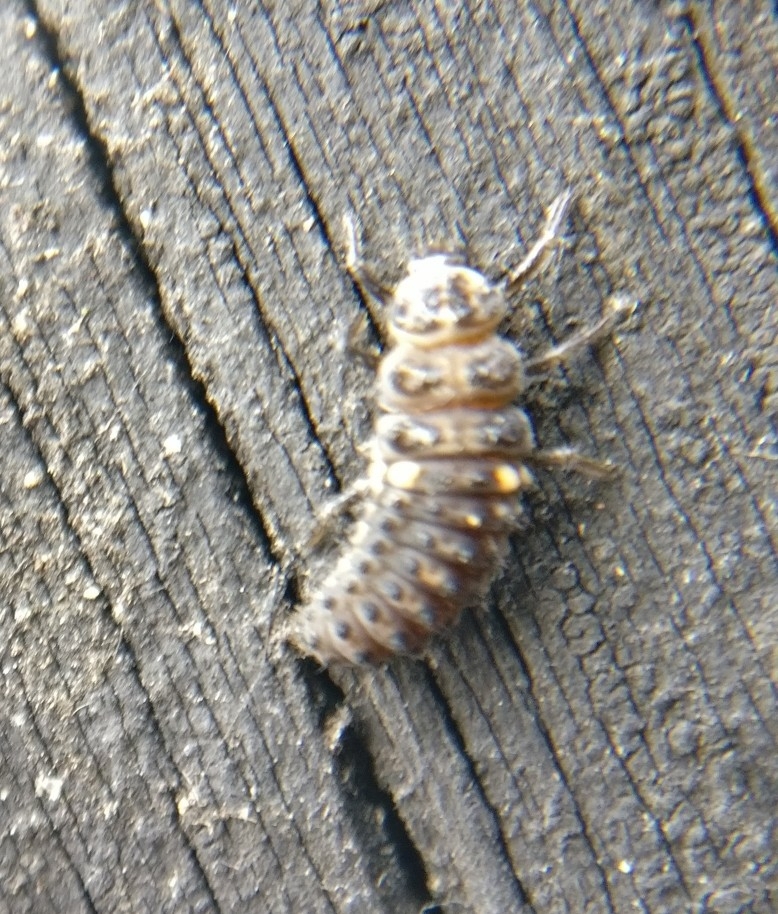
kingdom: Animalia
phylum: Arthropoda
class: Insecta
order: Coleoptera
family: Coccinellidae
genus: Adalia
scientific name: Adalia bipunctata
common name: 2-spot ladybird
